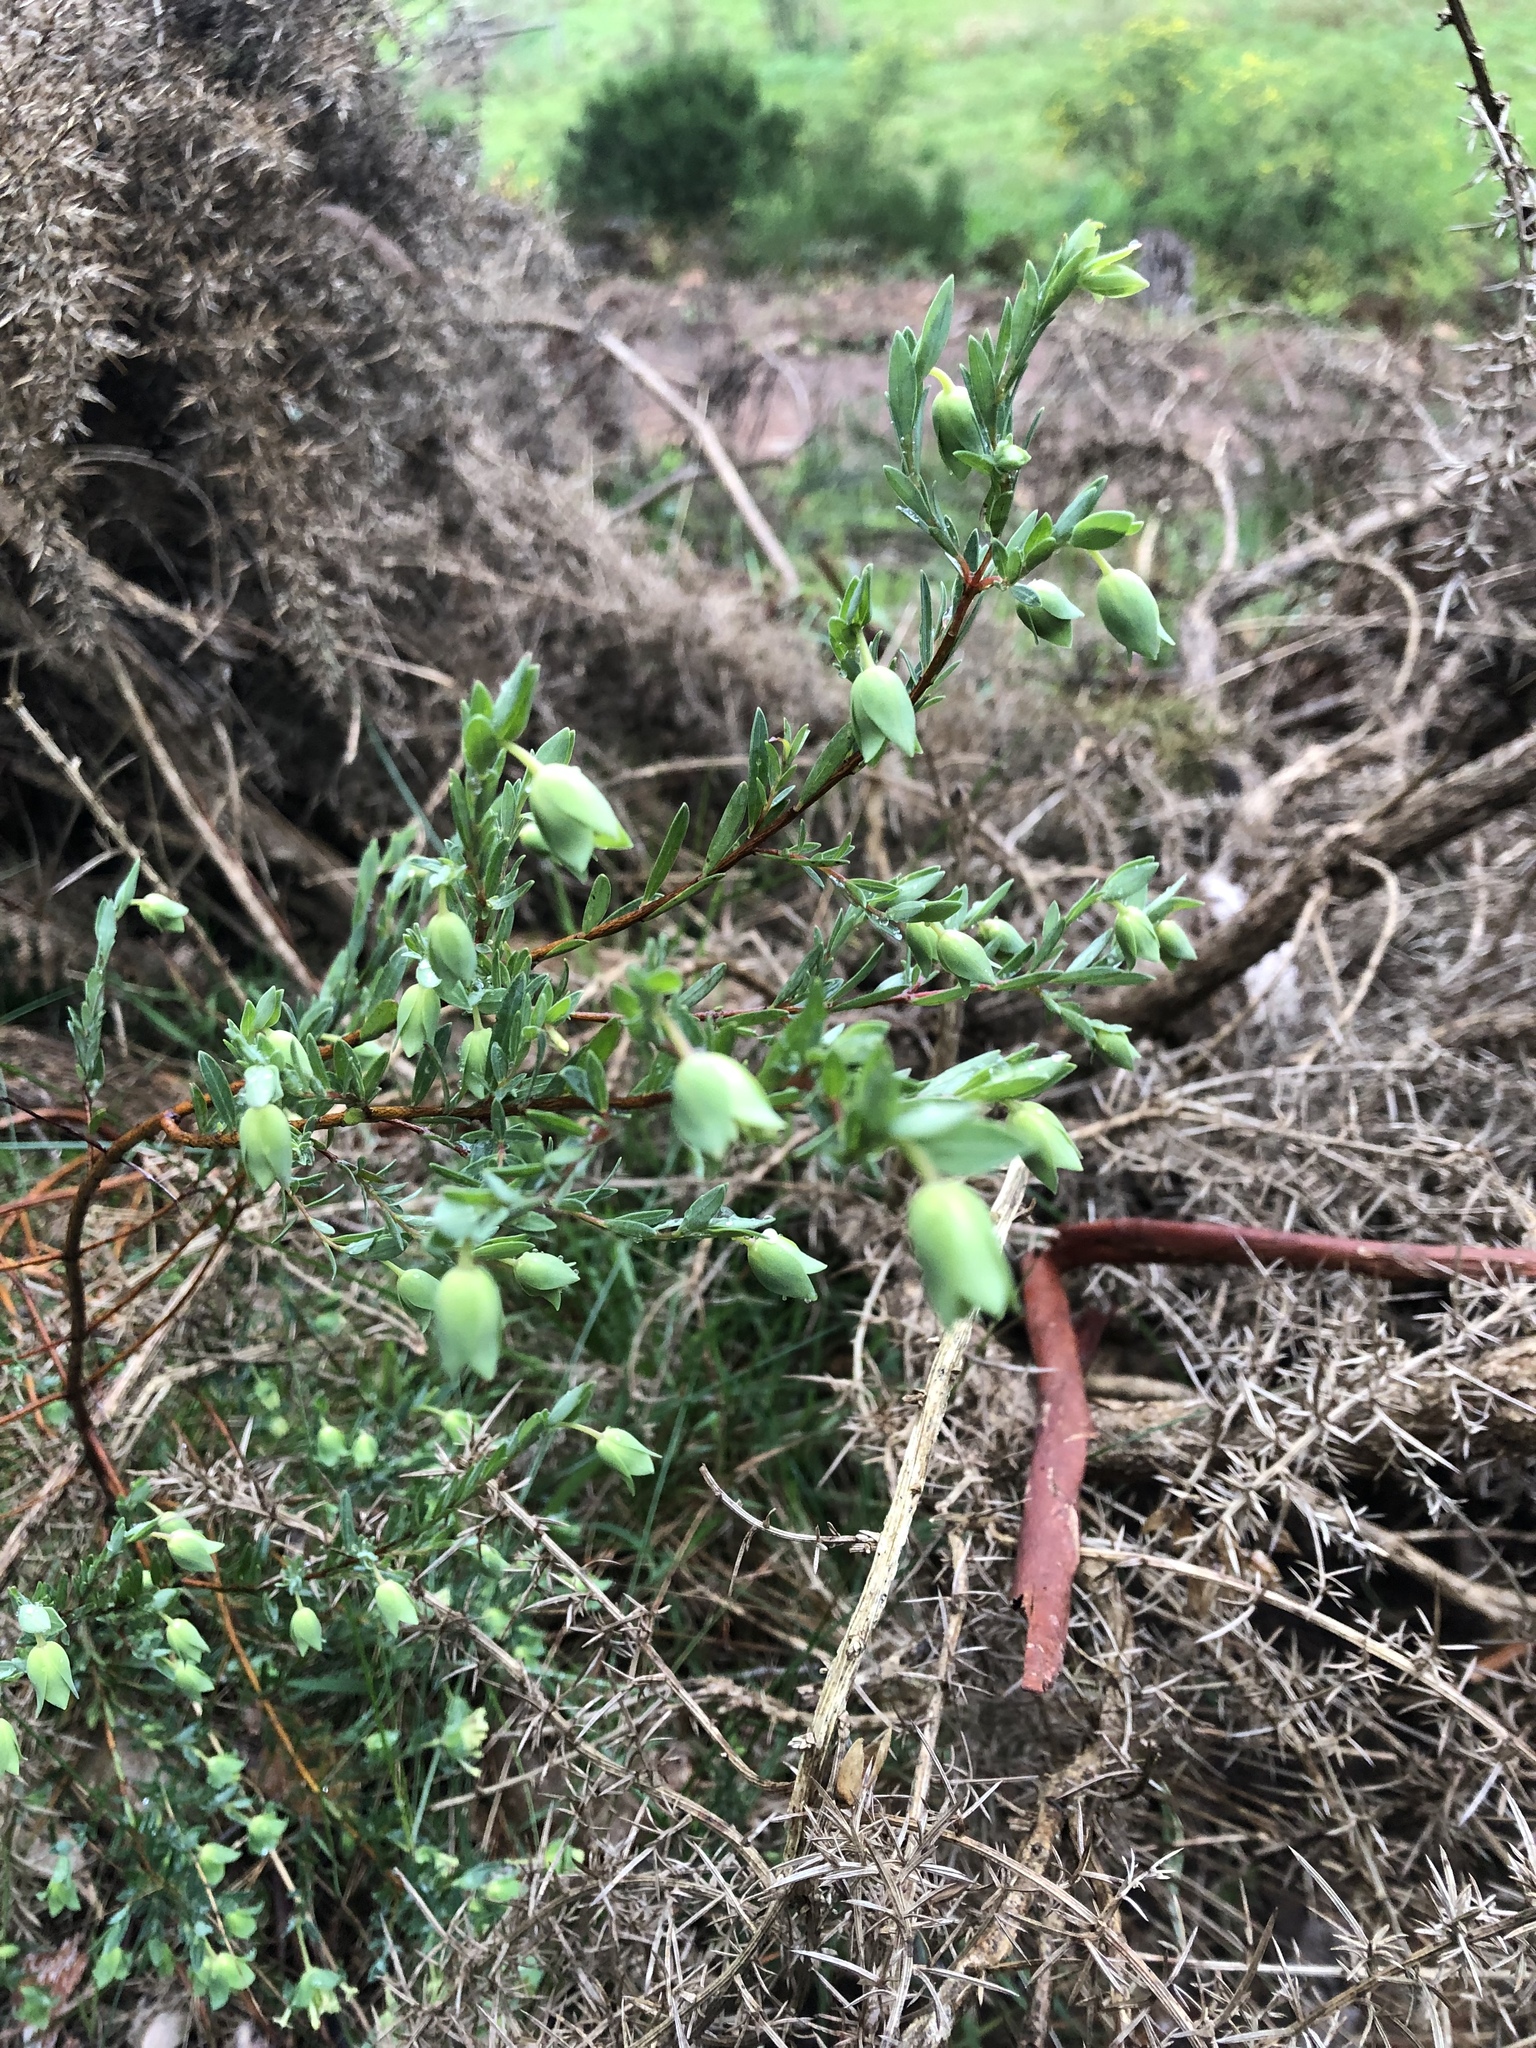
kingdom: Plantae
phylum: Tracheophyta
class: Magnoliopsida
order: Malvales
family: Thymelaeaceae
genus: Pimelea
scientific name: Pimelea linifolia
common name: Queen-of-the-bush
